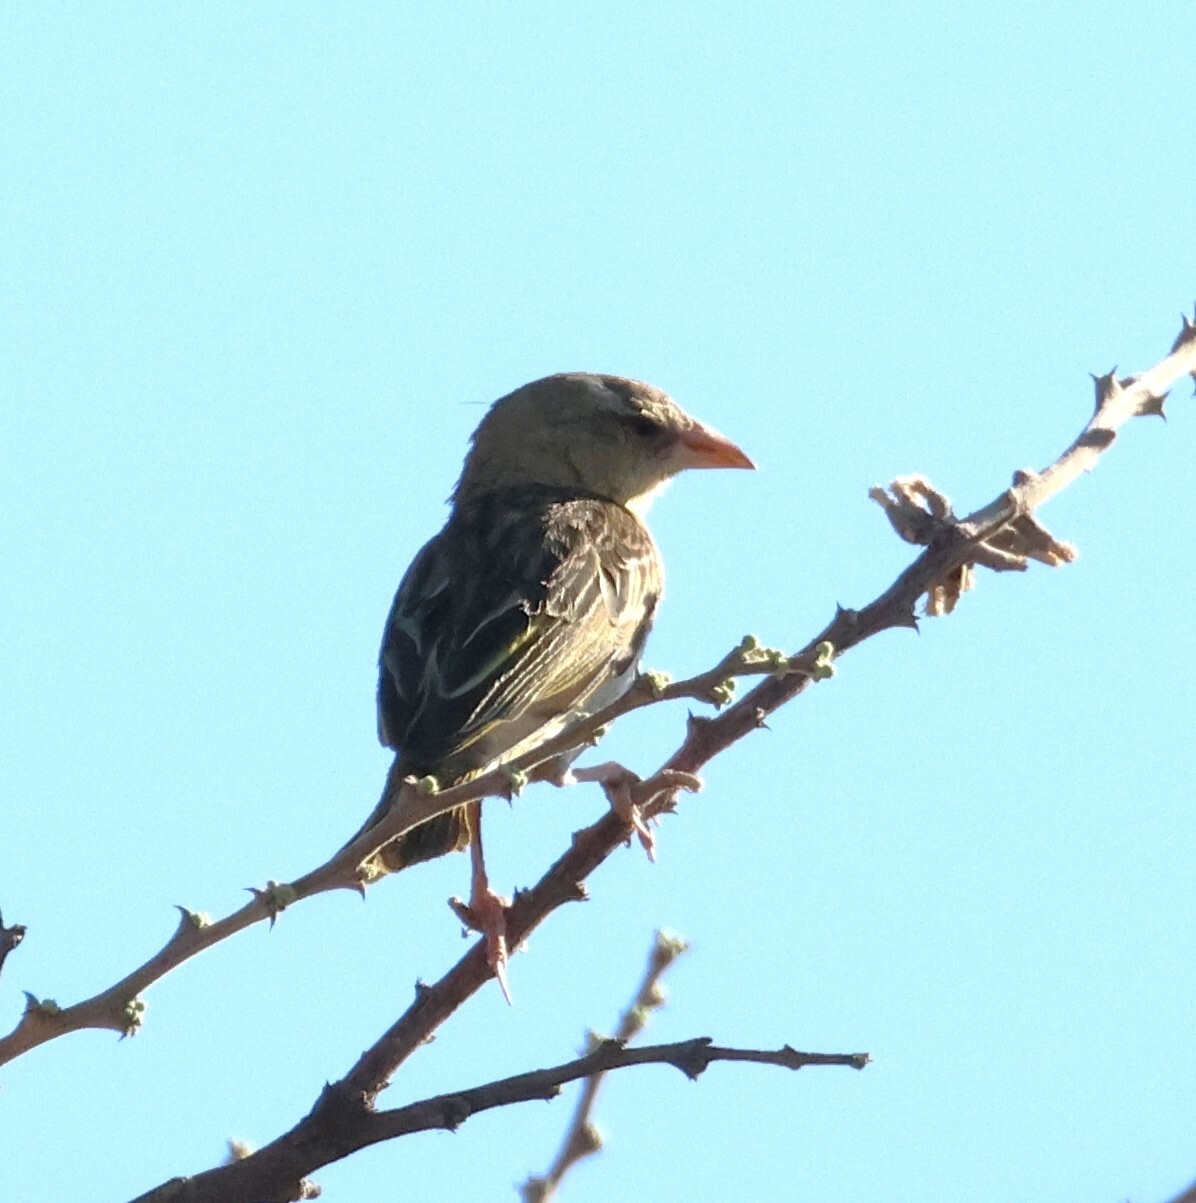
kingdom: Animalia
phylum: Chordata
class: Aves
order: Passeriformes
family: Ploceidae
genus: Ploceus
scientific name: Ploceus velatus
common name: Southern masked weaver
